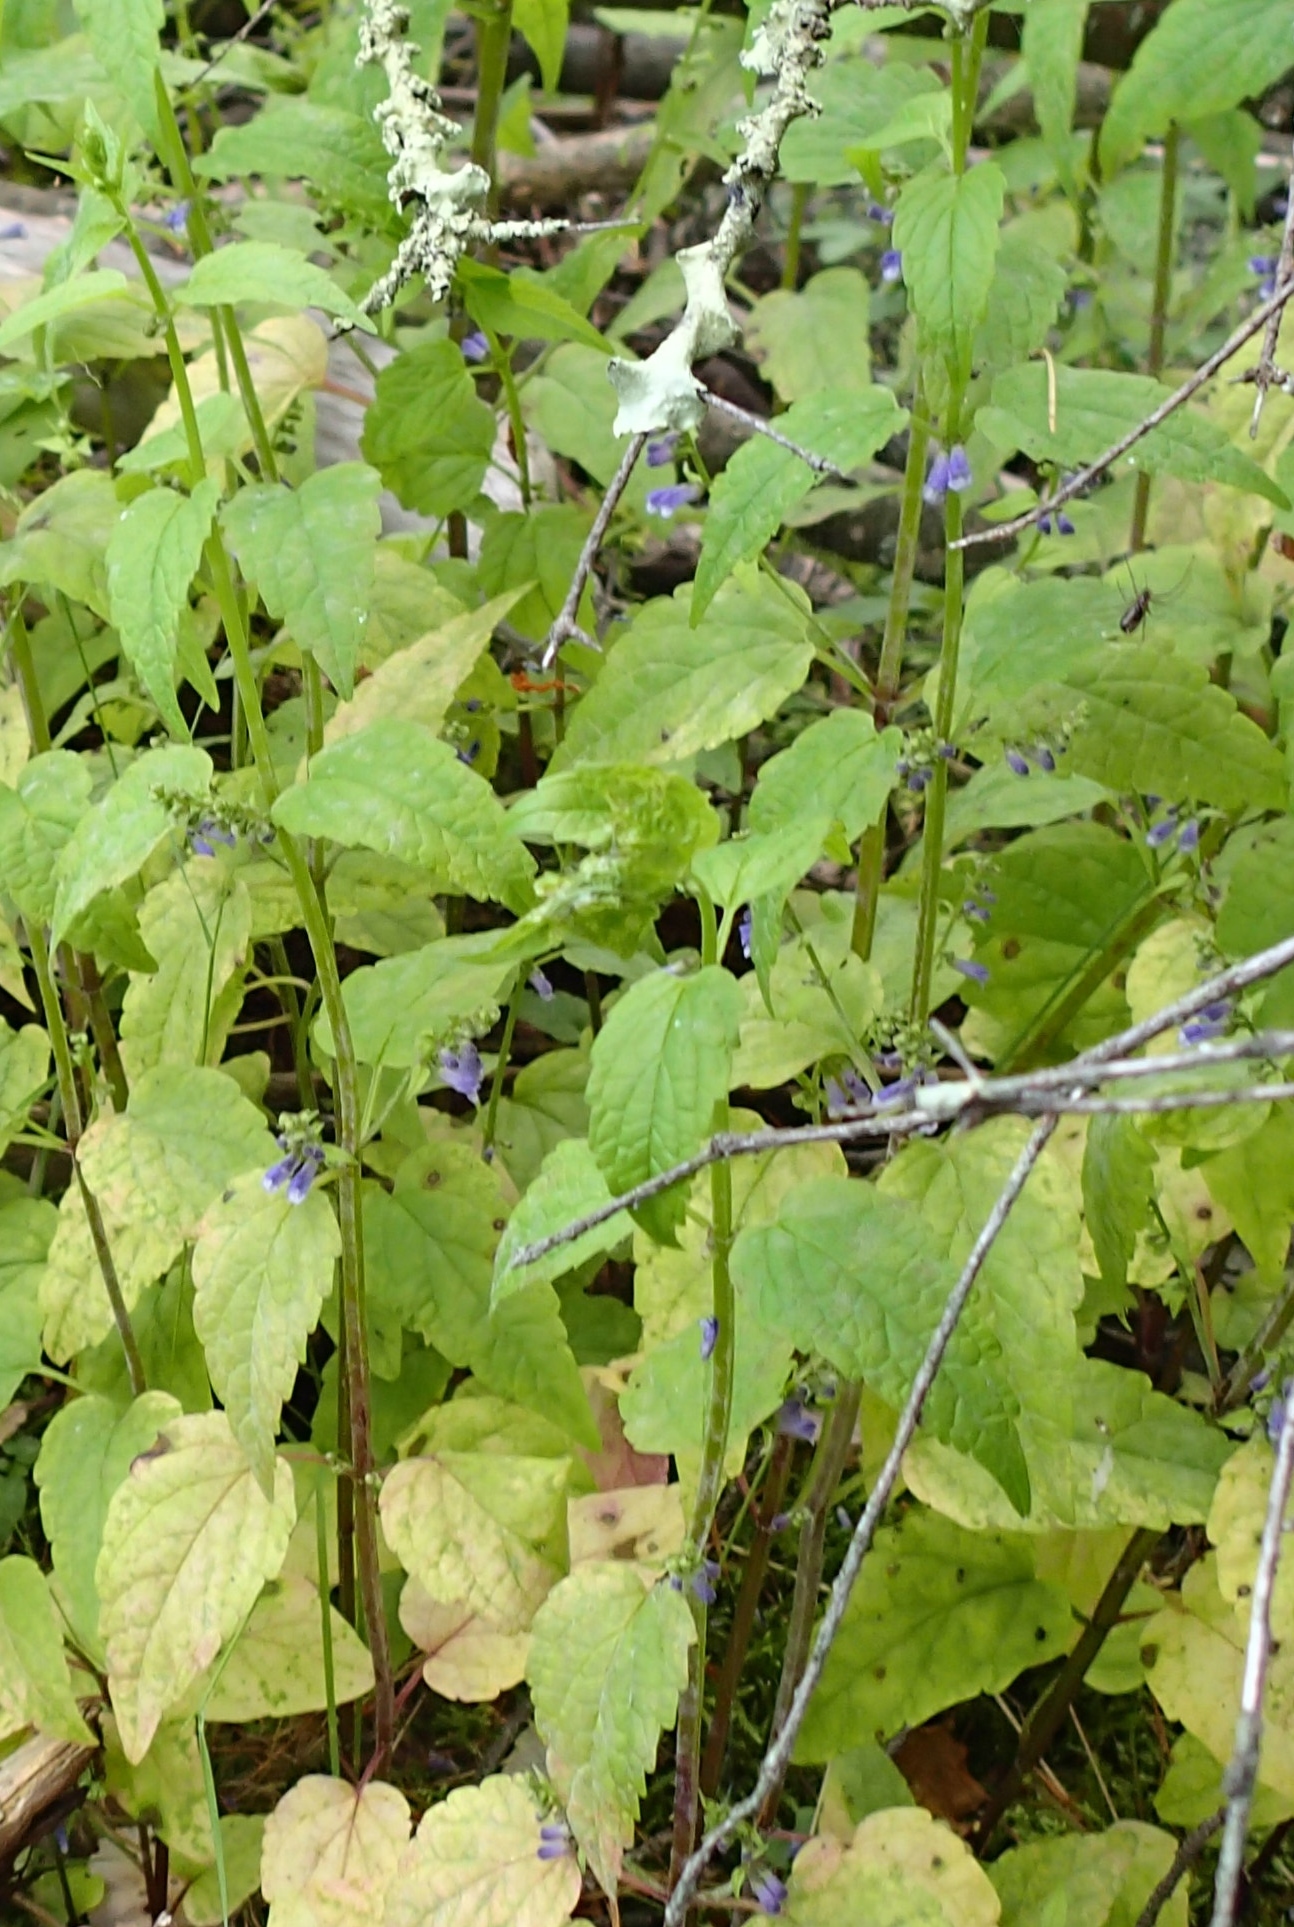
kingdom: Plantae
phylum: Tracheophyta
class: Magnoliopsida
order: Lamiales
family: Lamiaceae
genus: Scutellaria
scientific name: Scutellaria lateriflora
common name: Blue skullcap
